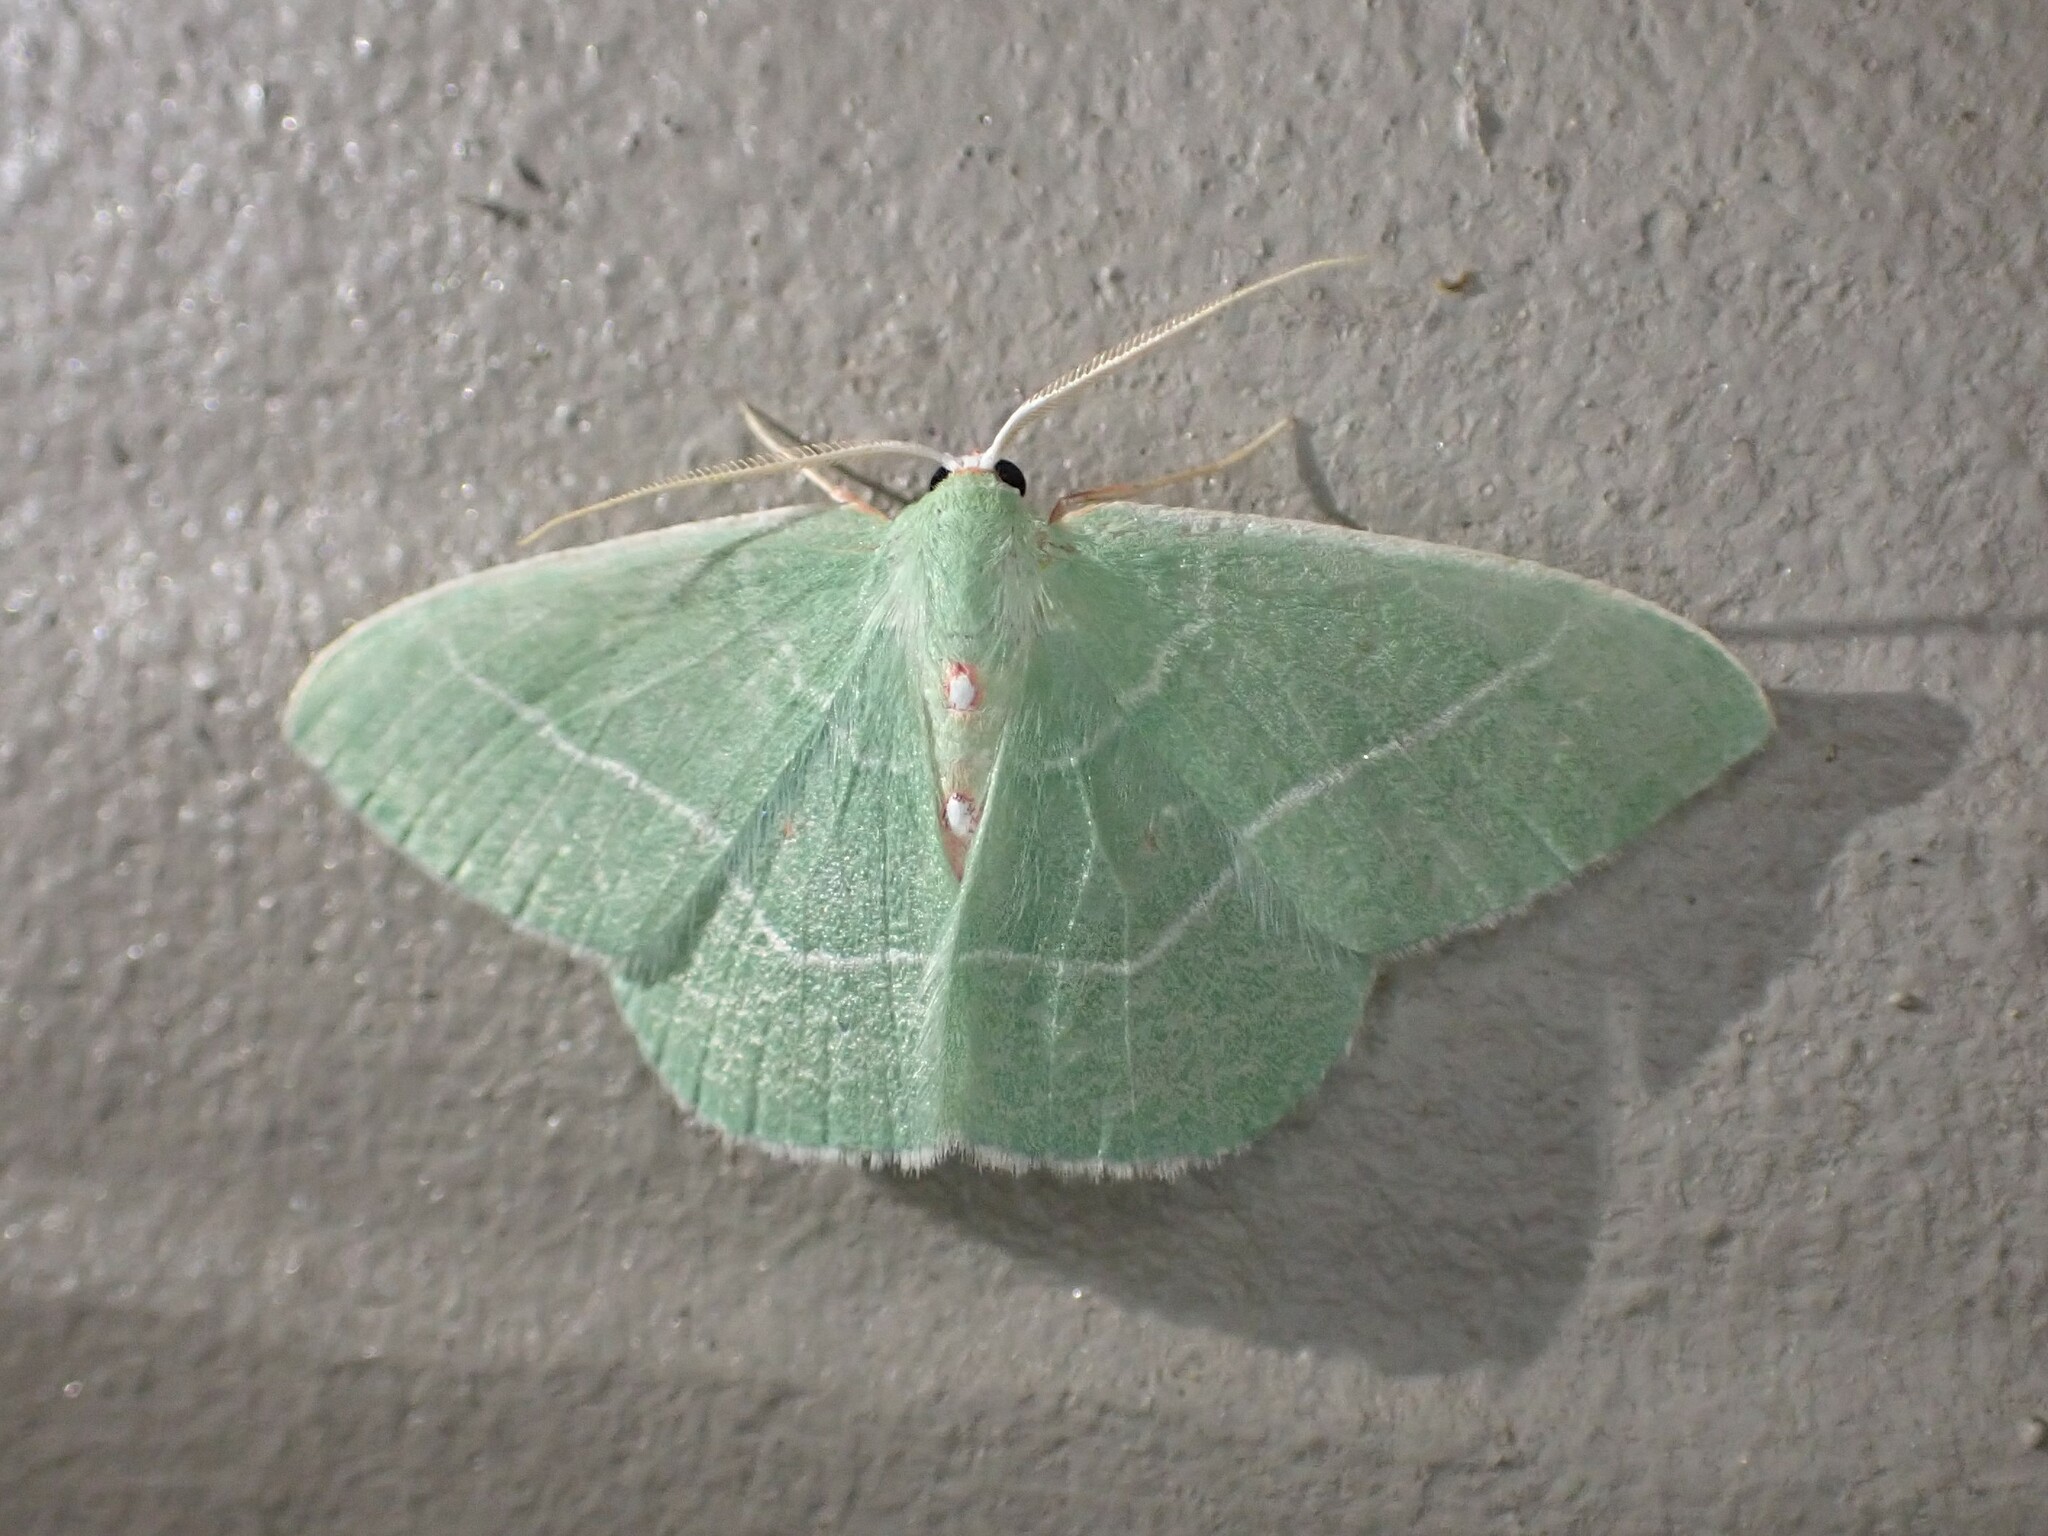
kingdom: Animalia
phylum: Arthropoda
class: Insecta
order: Lepidoptera
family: Geometridae
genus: Nemoria
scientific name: Nemoria darwiniata
